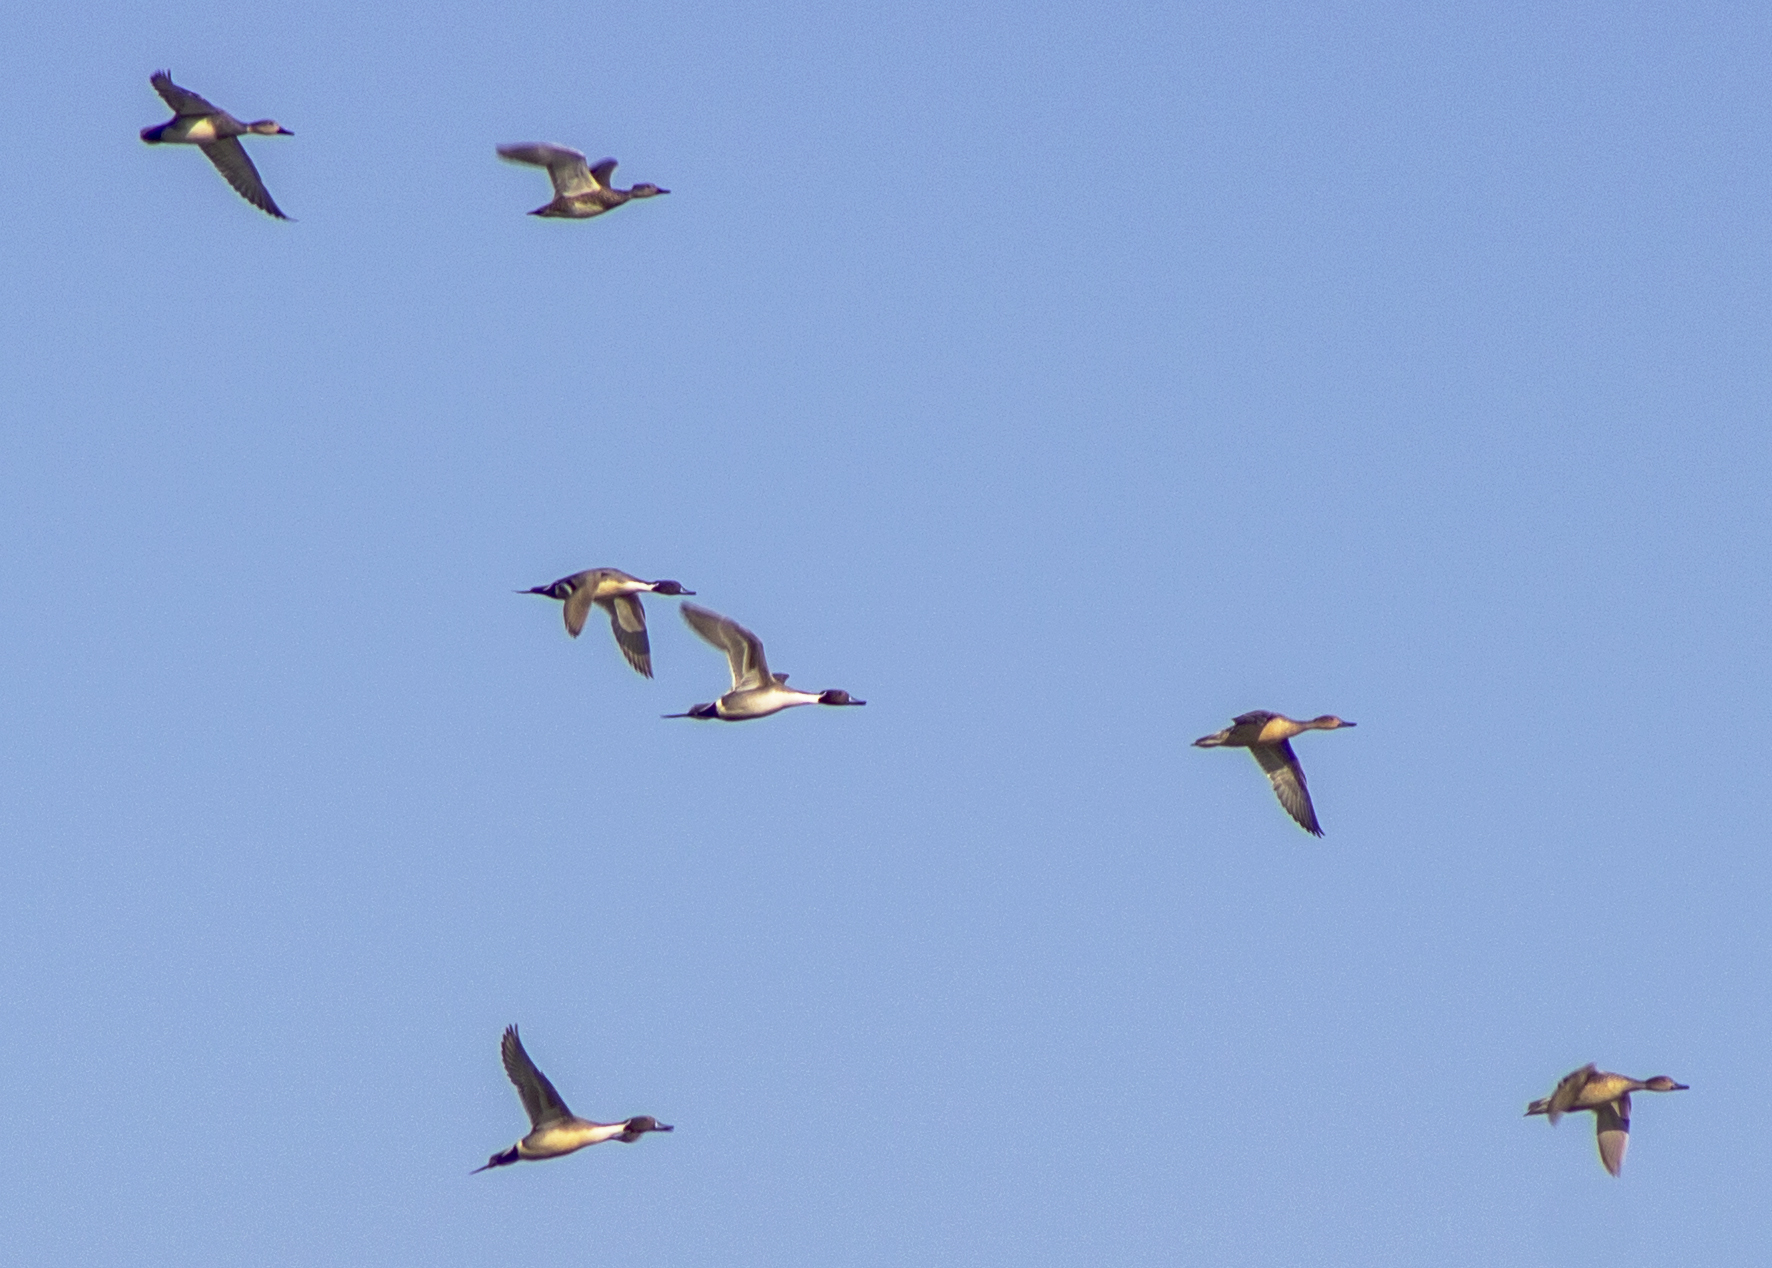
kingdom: Animalia
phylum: Chordata
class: Aves
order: Anseriformes
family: Anatidae
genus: Anas
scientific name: Anas acuta
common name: Northern pintail
